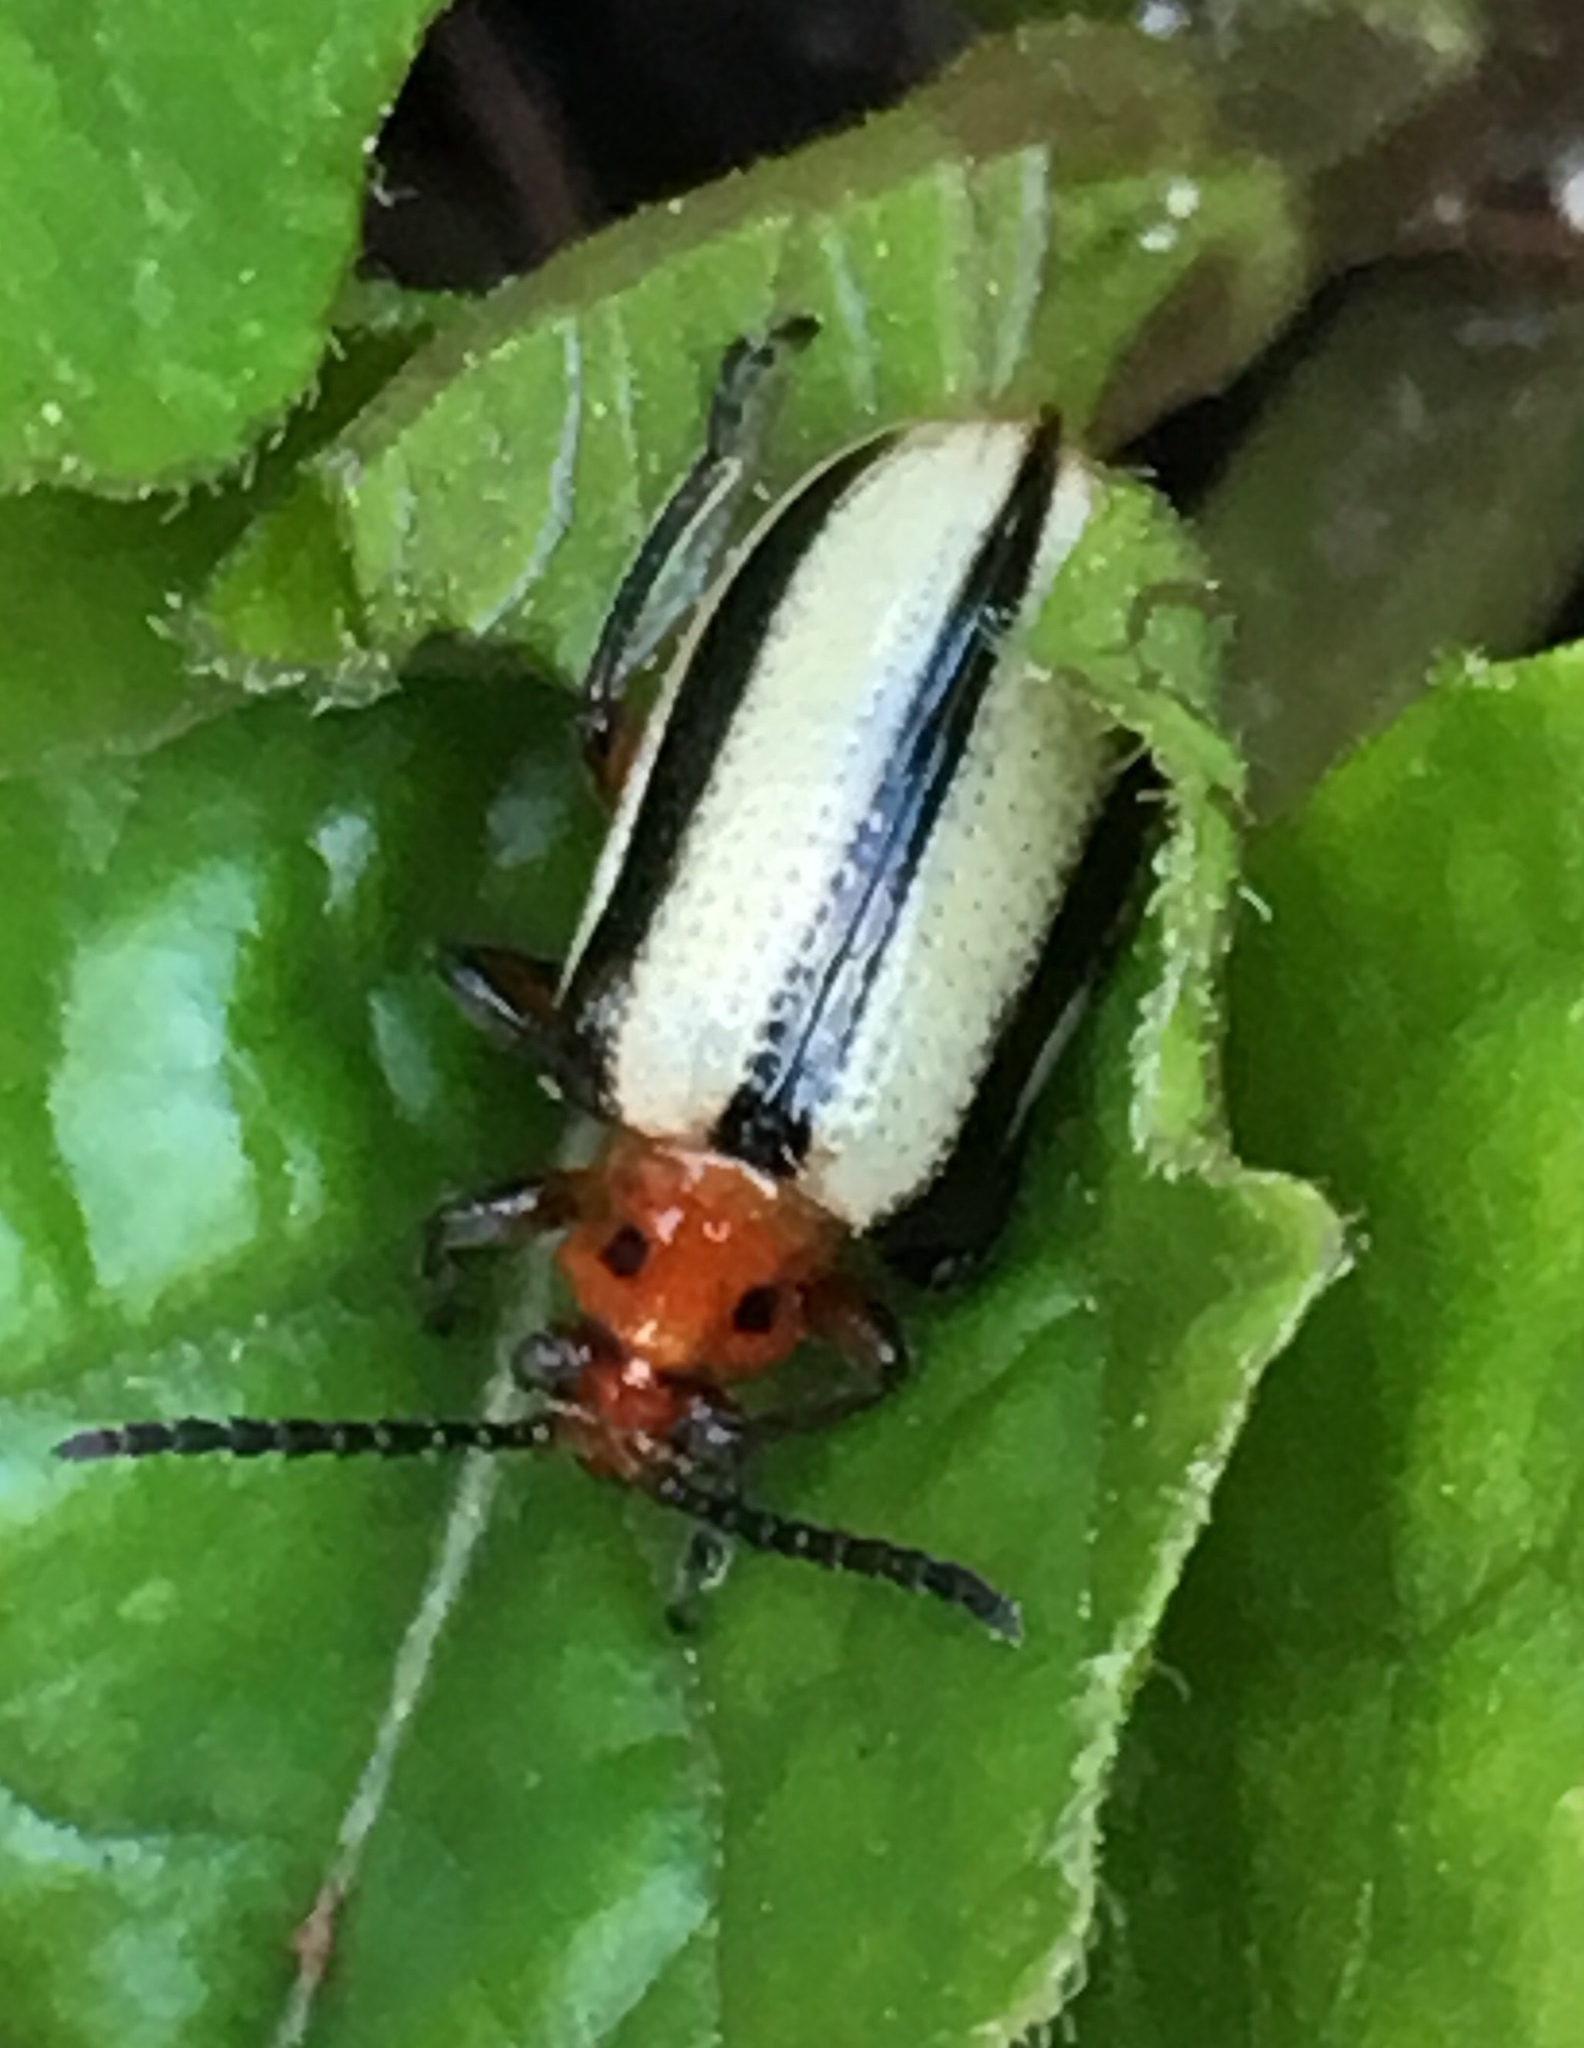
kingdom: Animalia
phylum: Arthropoda
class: Insecta
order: Coleoptera
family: Chrysomelidae
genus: Lema
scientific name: Lema daturaphila
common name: Leaf beetle
